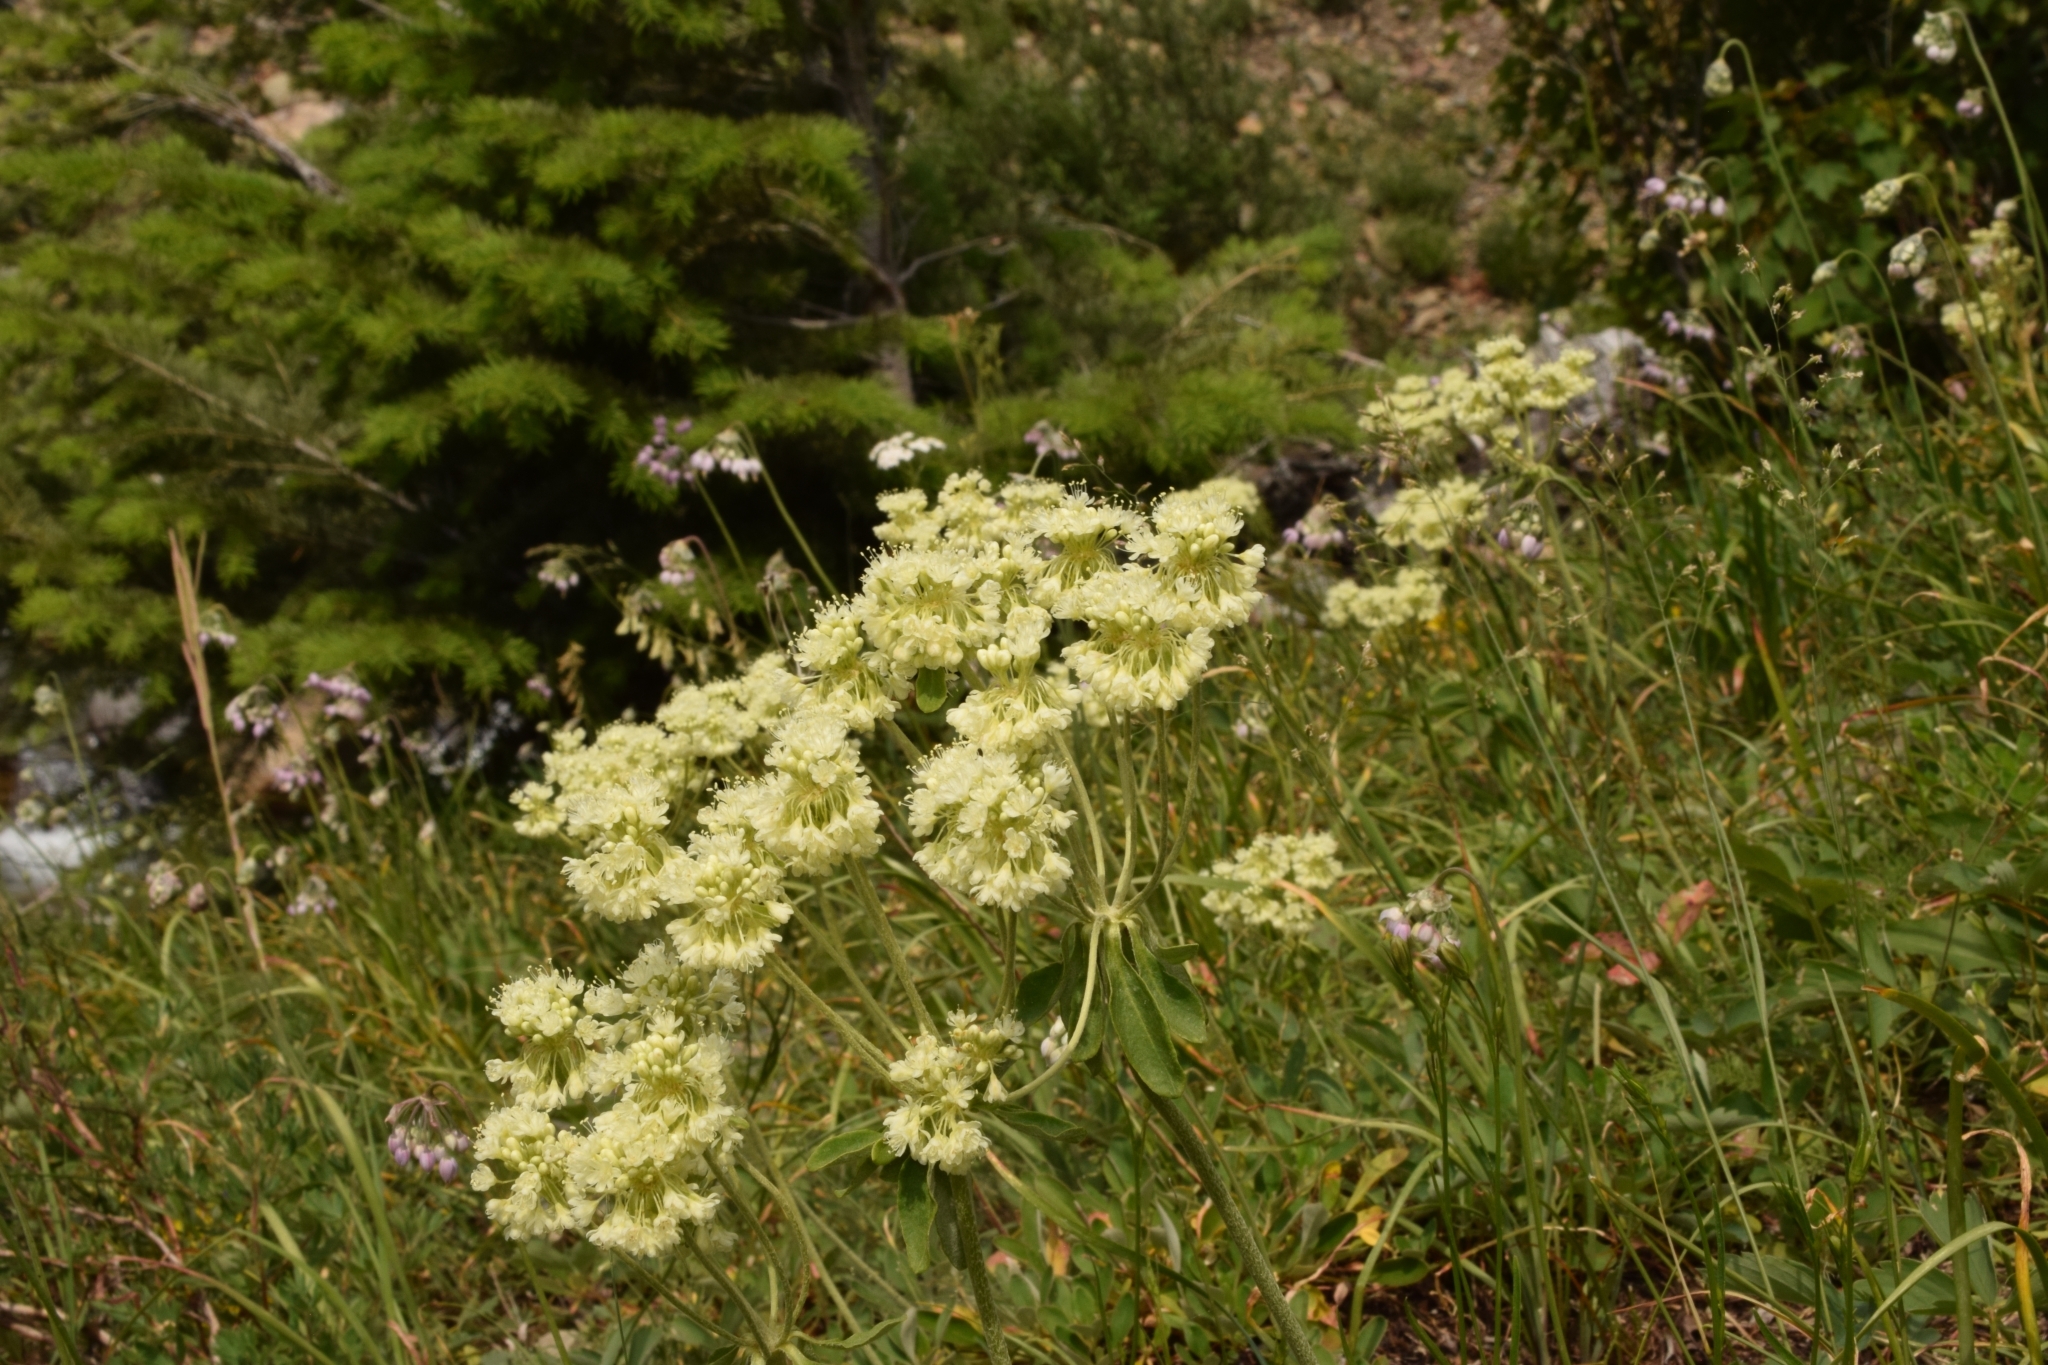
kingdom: Plantae
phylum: Tracheophyta
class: Magnoliopsida
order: Caryophyllales
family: Polygonaceae
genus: Eriogonum
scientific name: Eriogonum umbellatum
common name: Sulfur-buckwheat
